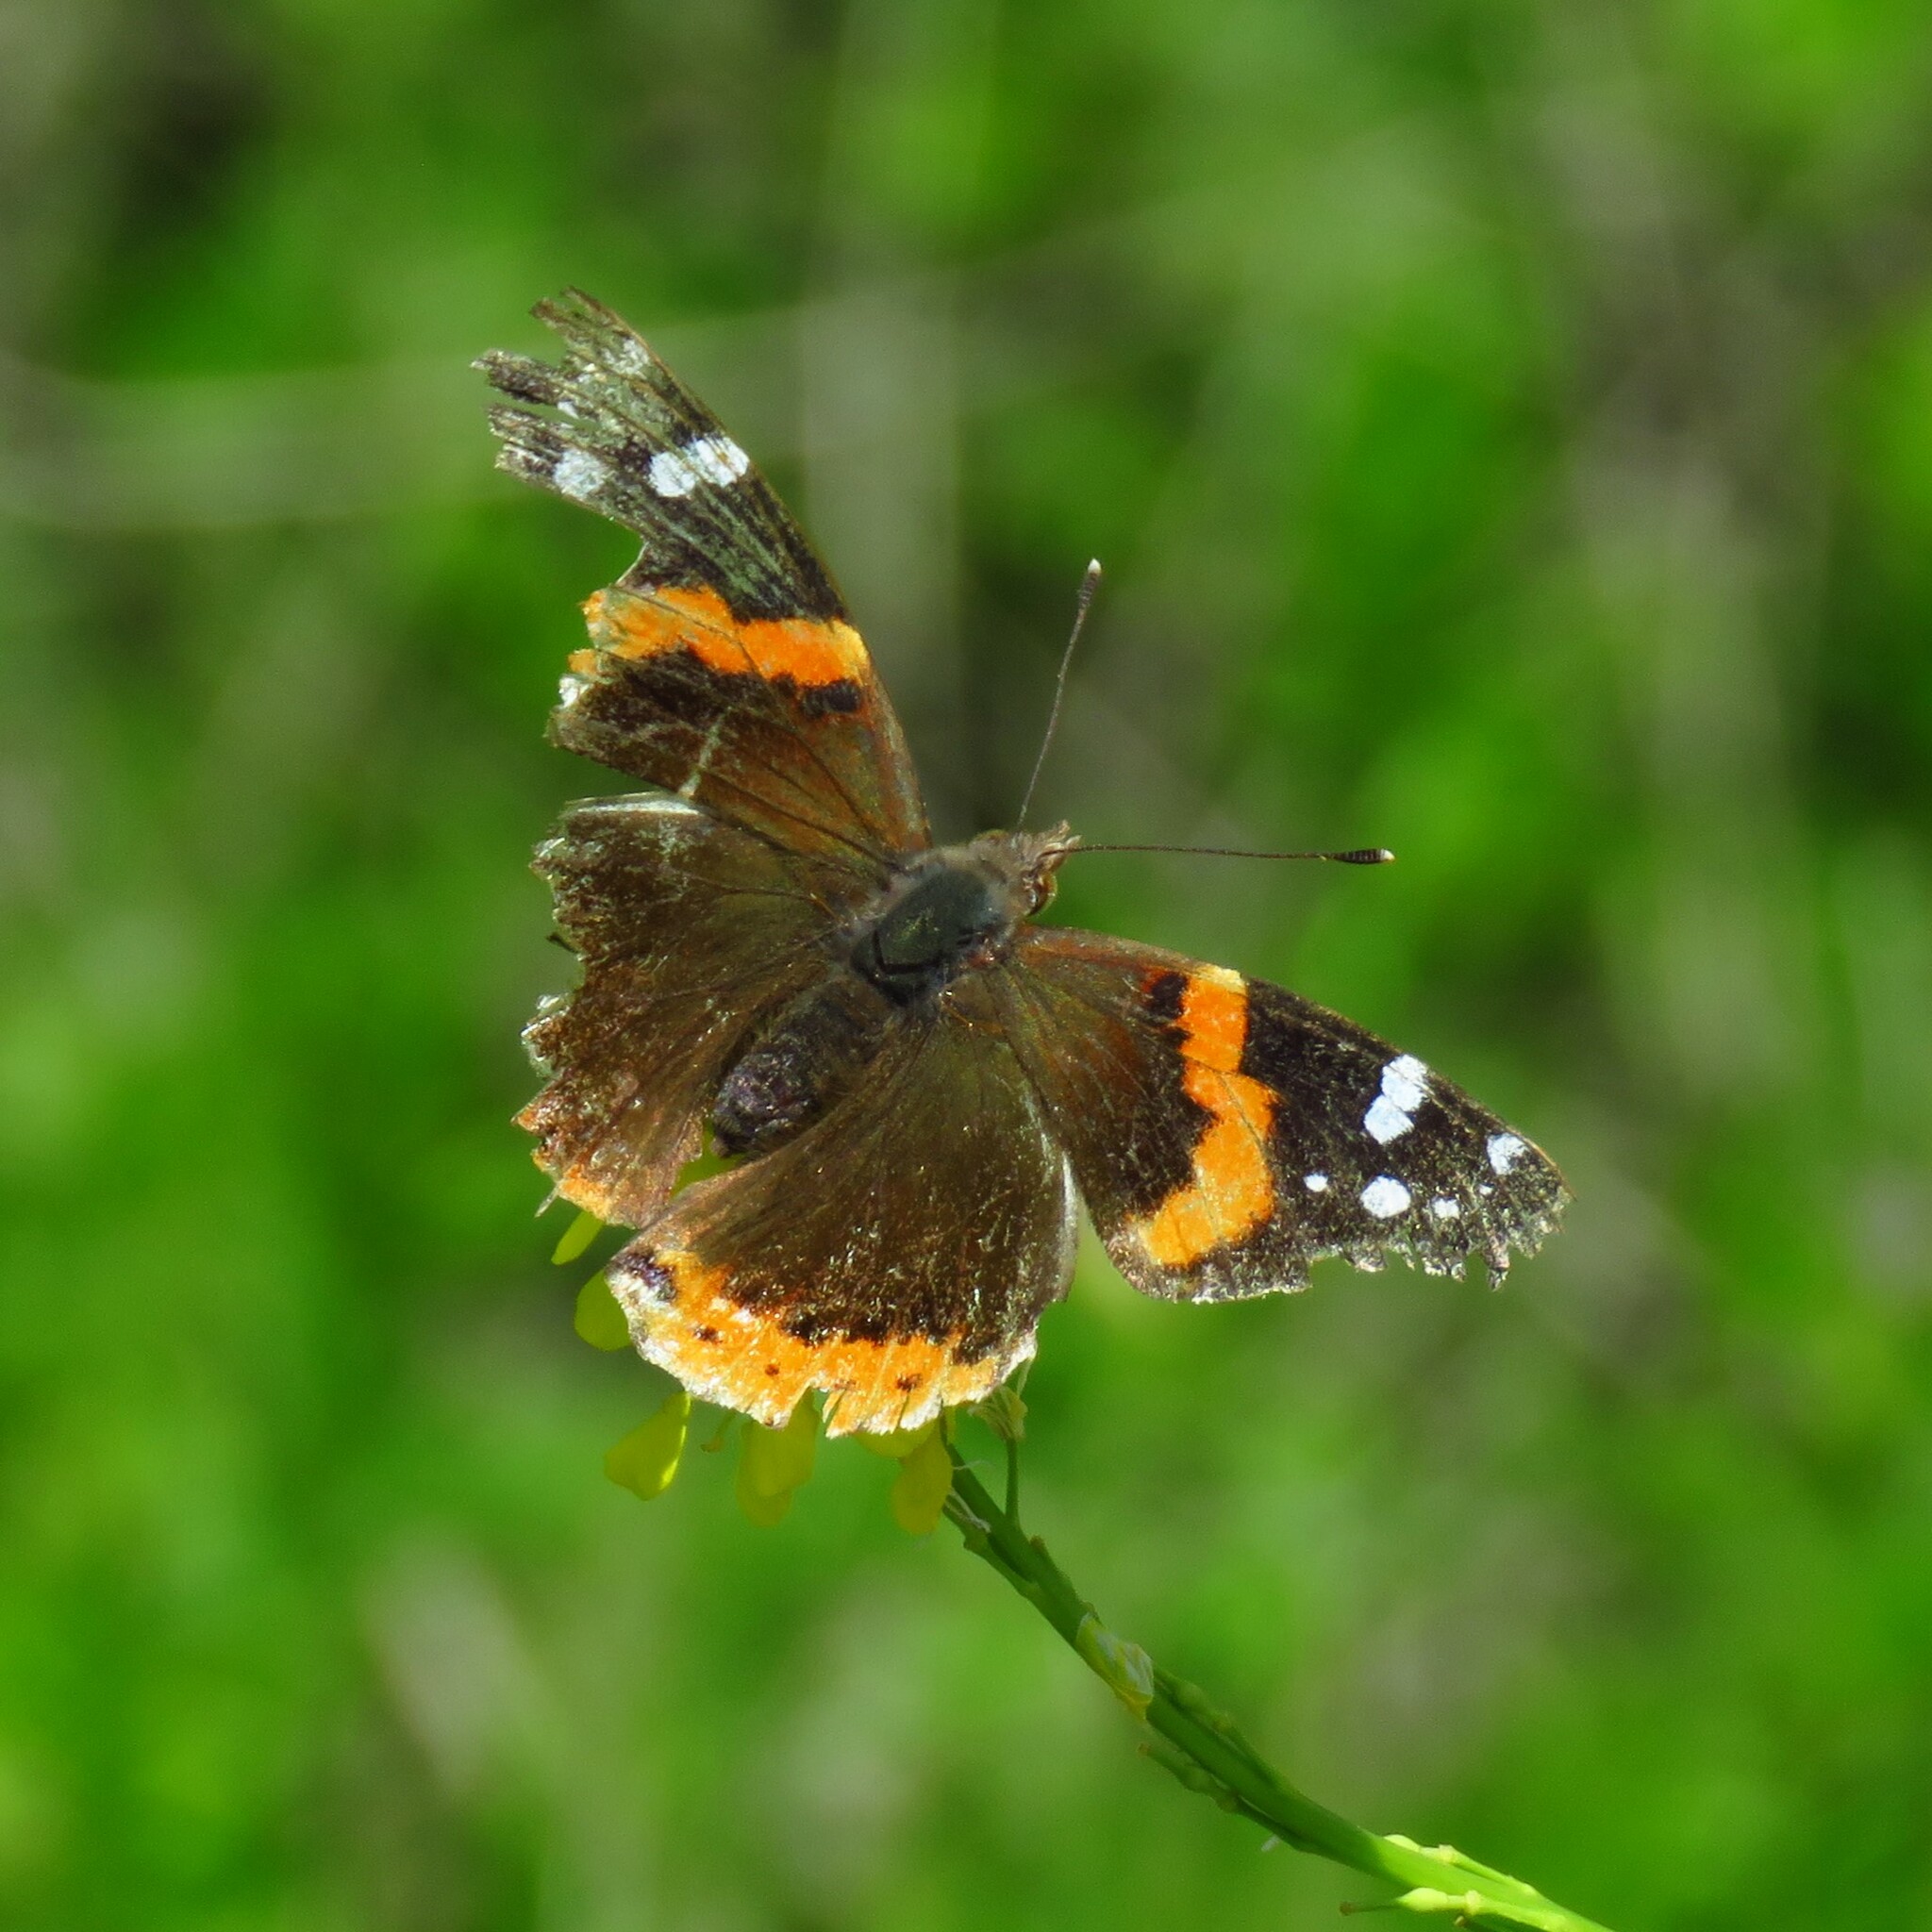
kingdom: Animalia
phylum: Arthropoda
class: Insecta
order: Lepidoptera
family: Nymphalidae
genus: Vanessa
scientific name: Vanessa atalanta
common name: Red admiral
